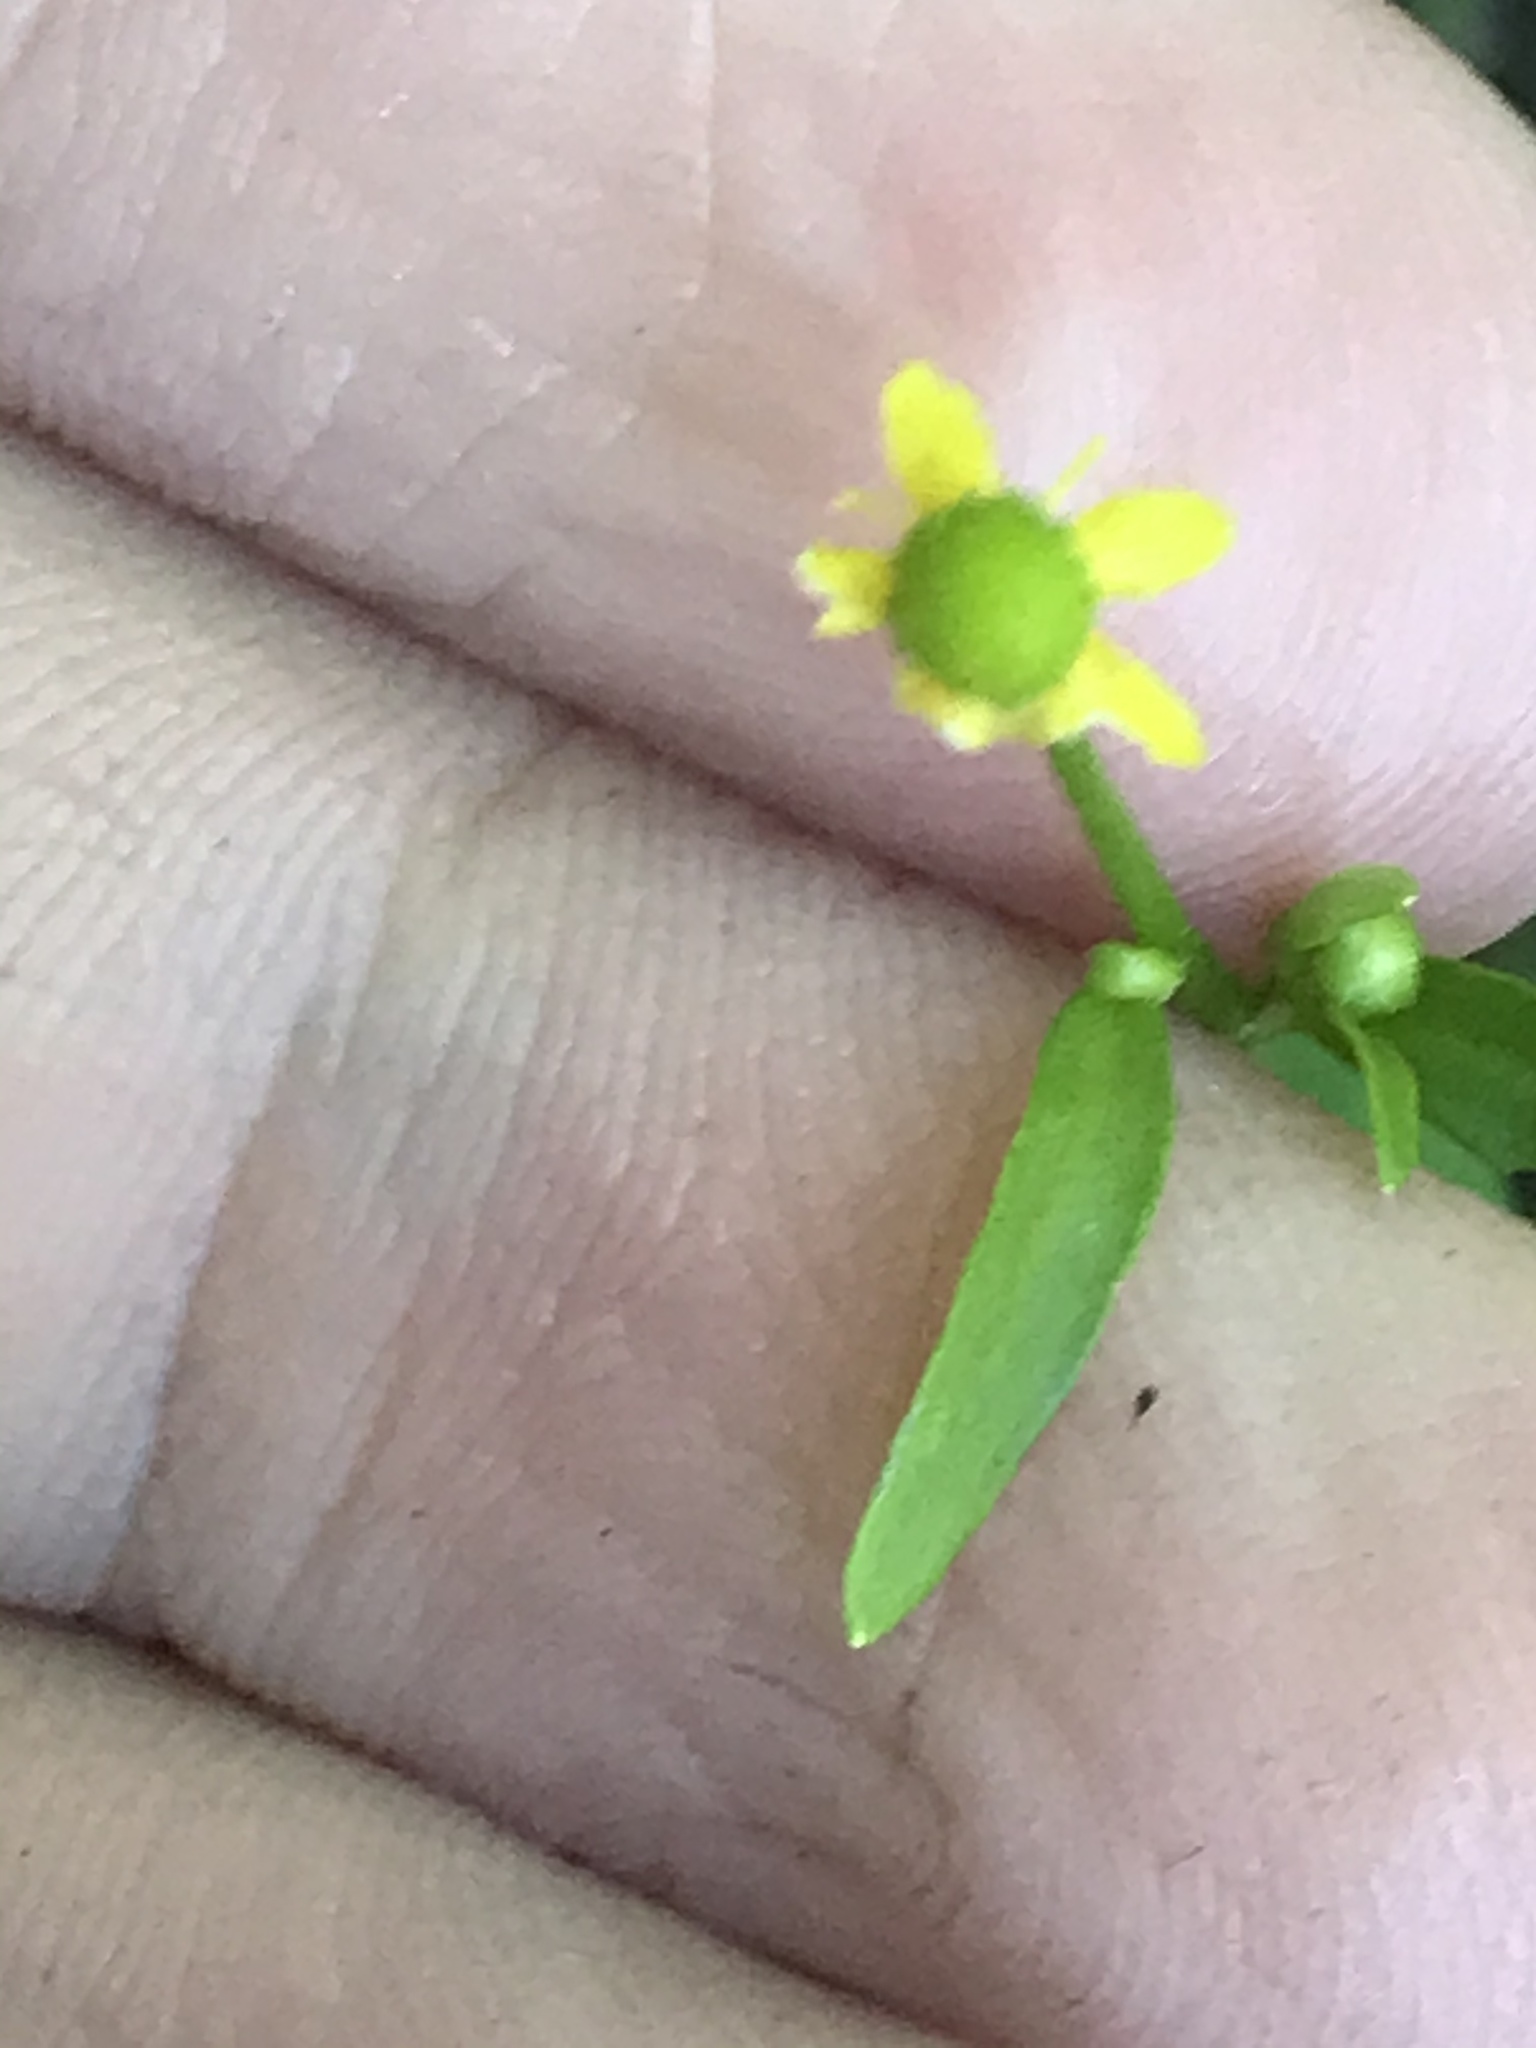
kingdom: Plantae
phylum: Tracheophyta
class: Magnoliopsida
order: Ranunculales
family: Ranunculaceae
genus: Ranunculus
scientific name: Ranunculus sceleratus
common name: Celery-leaved buttercup
